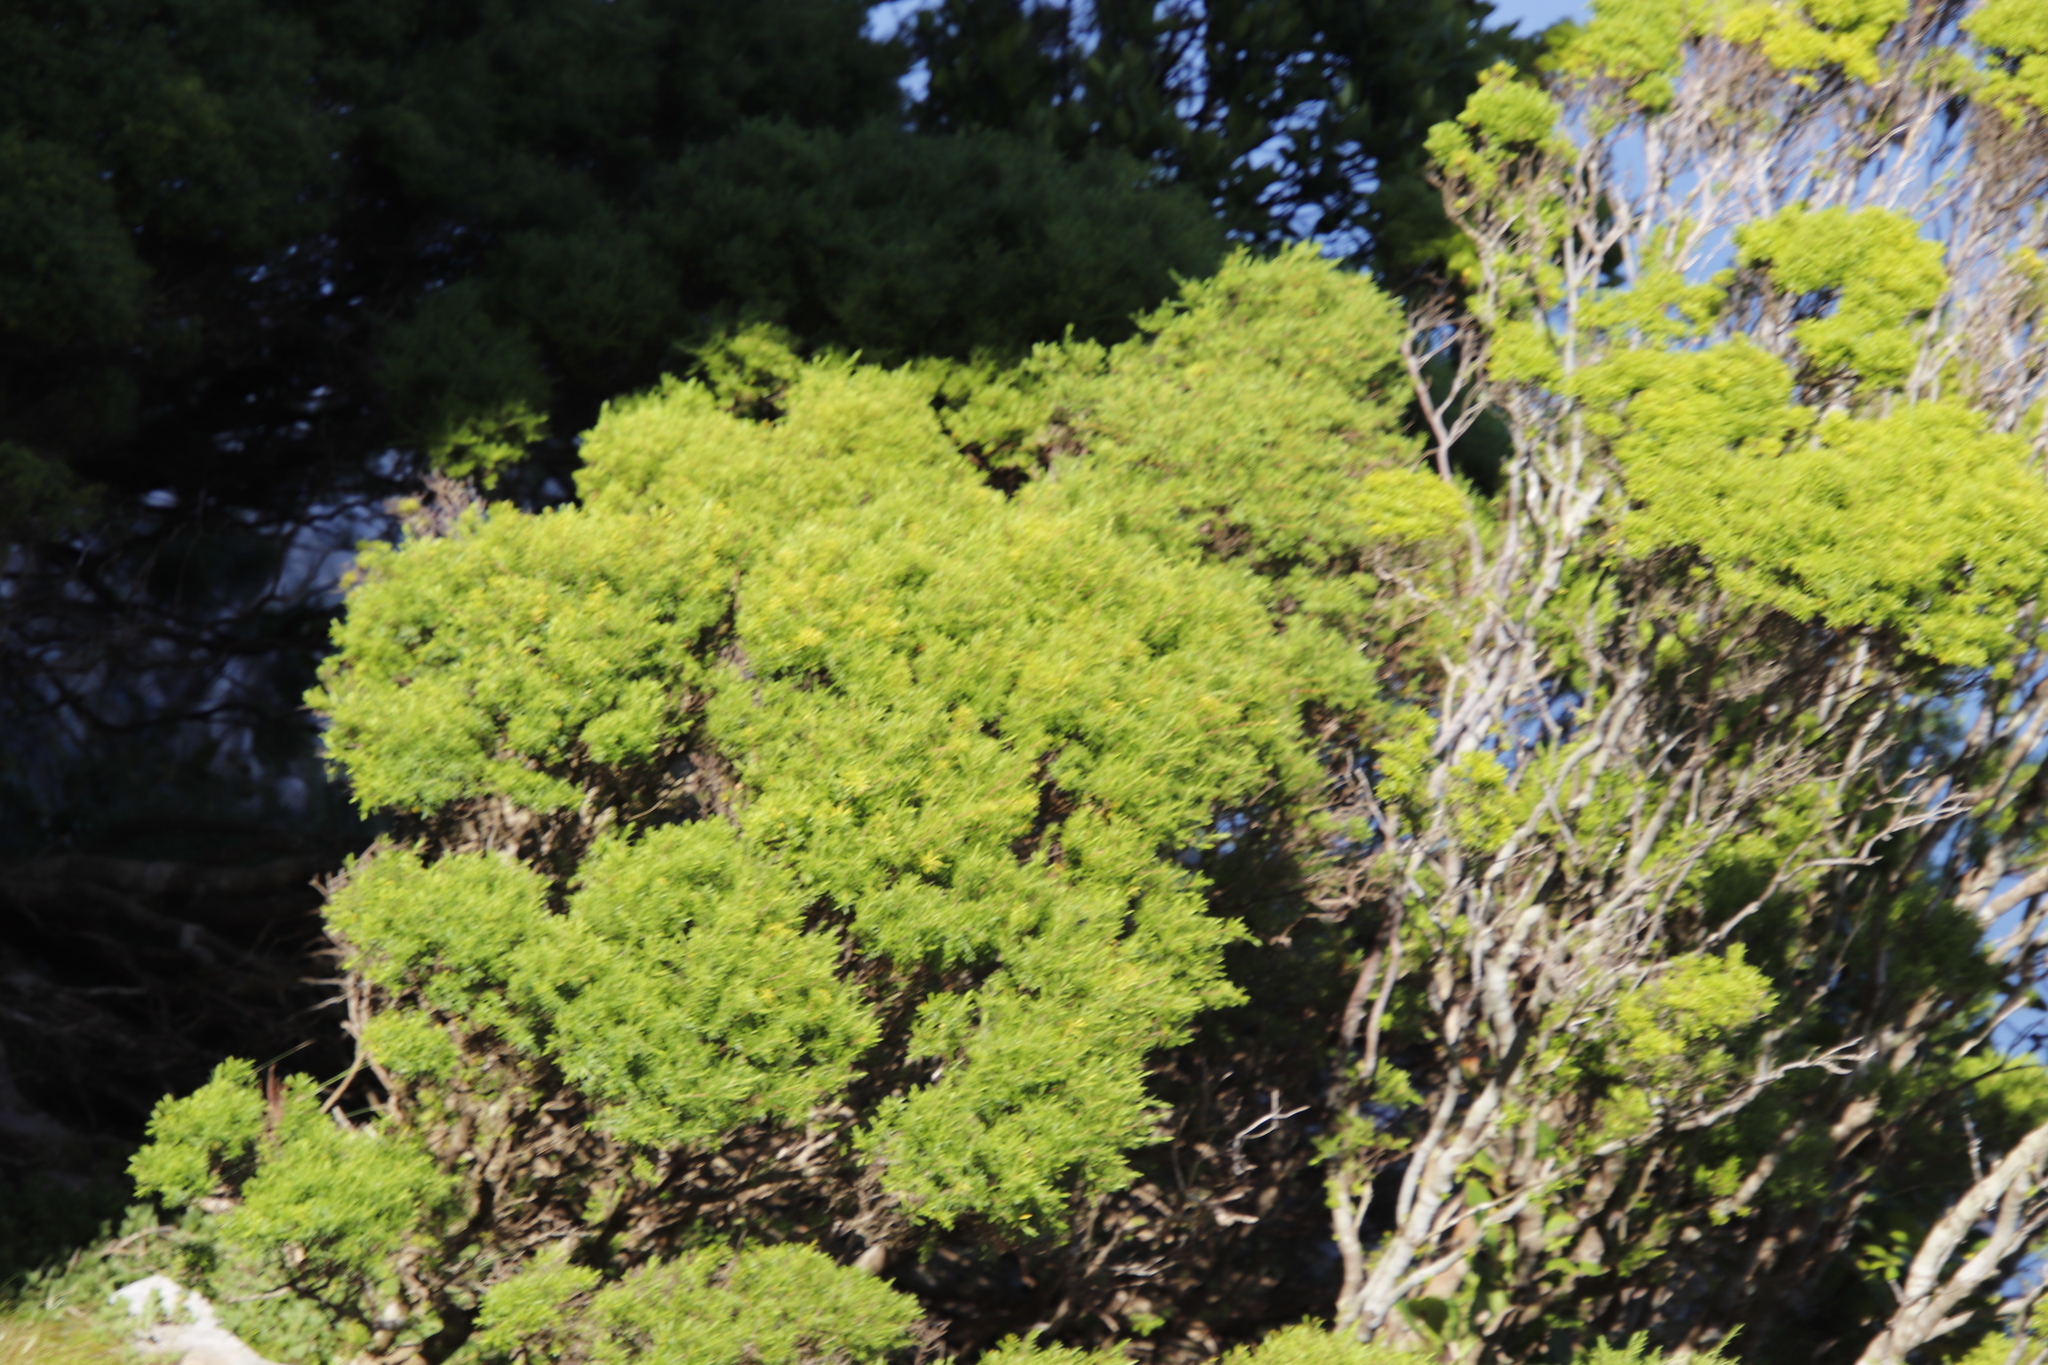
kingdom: Plantae
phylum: Tracheophyta
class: Magnoliopsida
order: Sapindales
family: Rutaceae
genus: Coleonema
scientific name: Coleonema album
